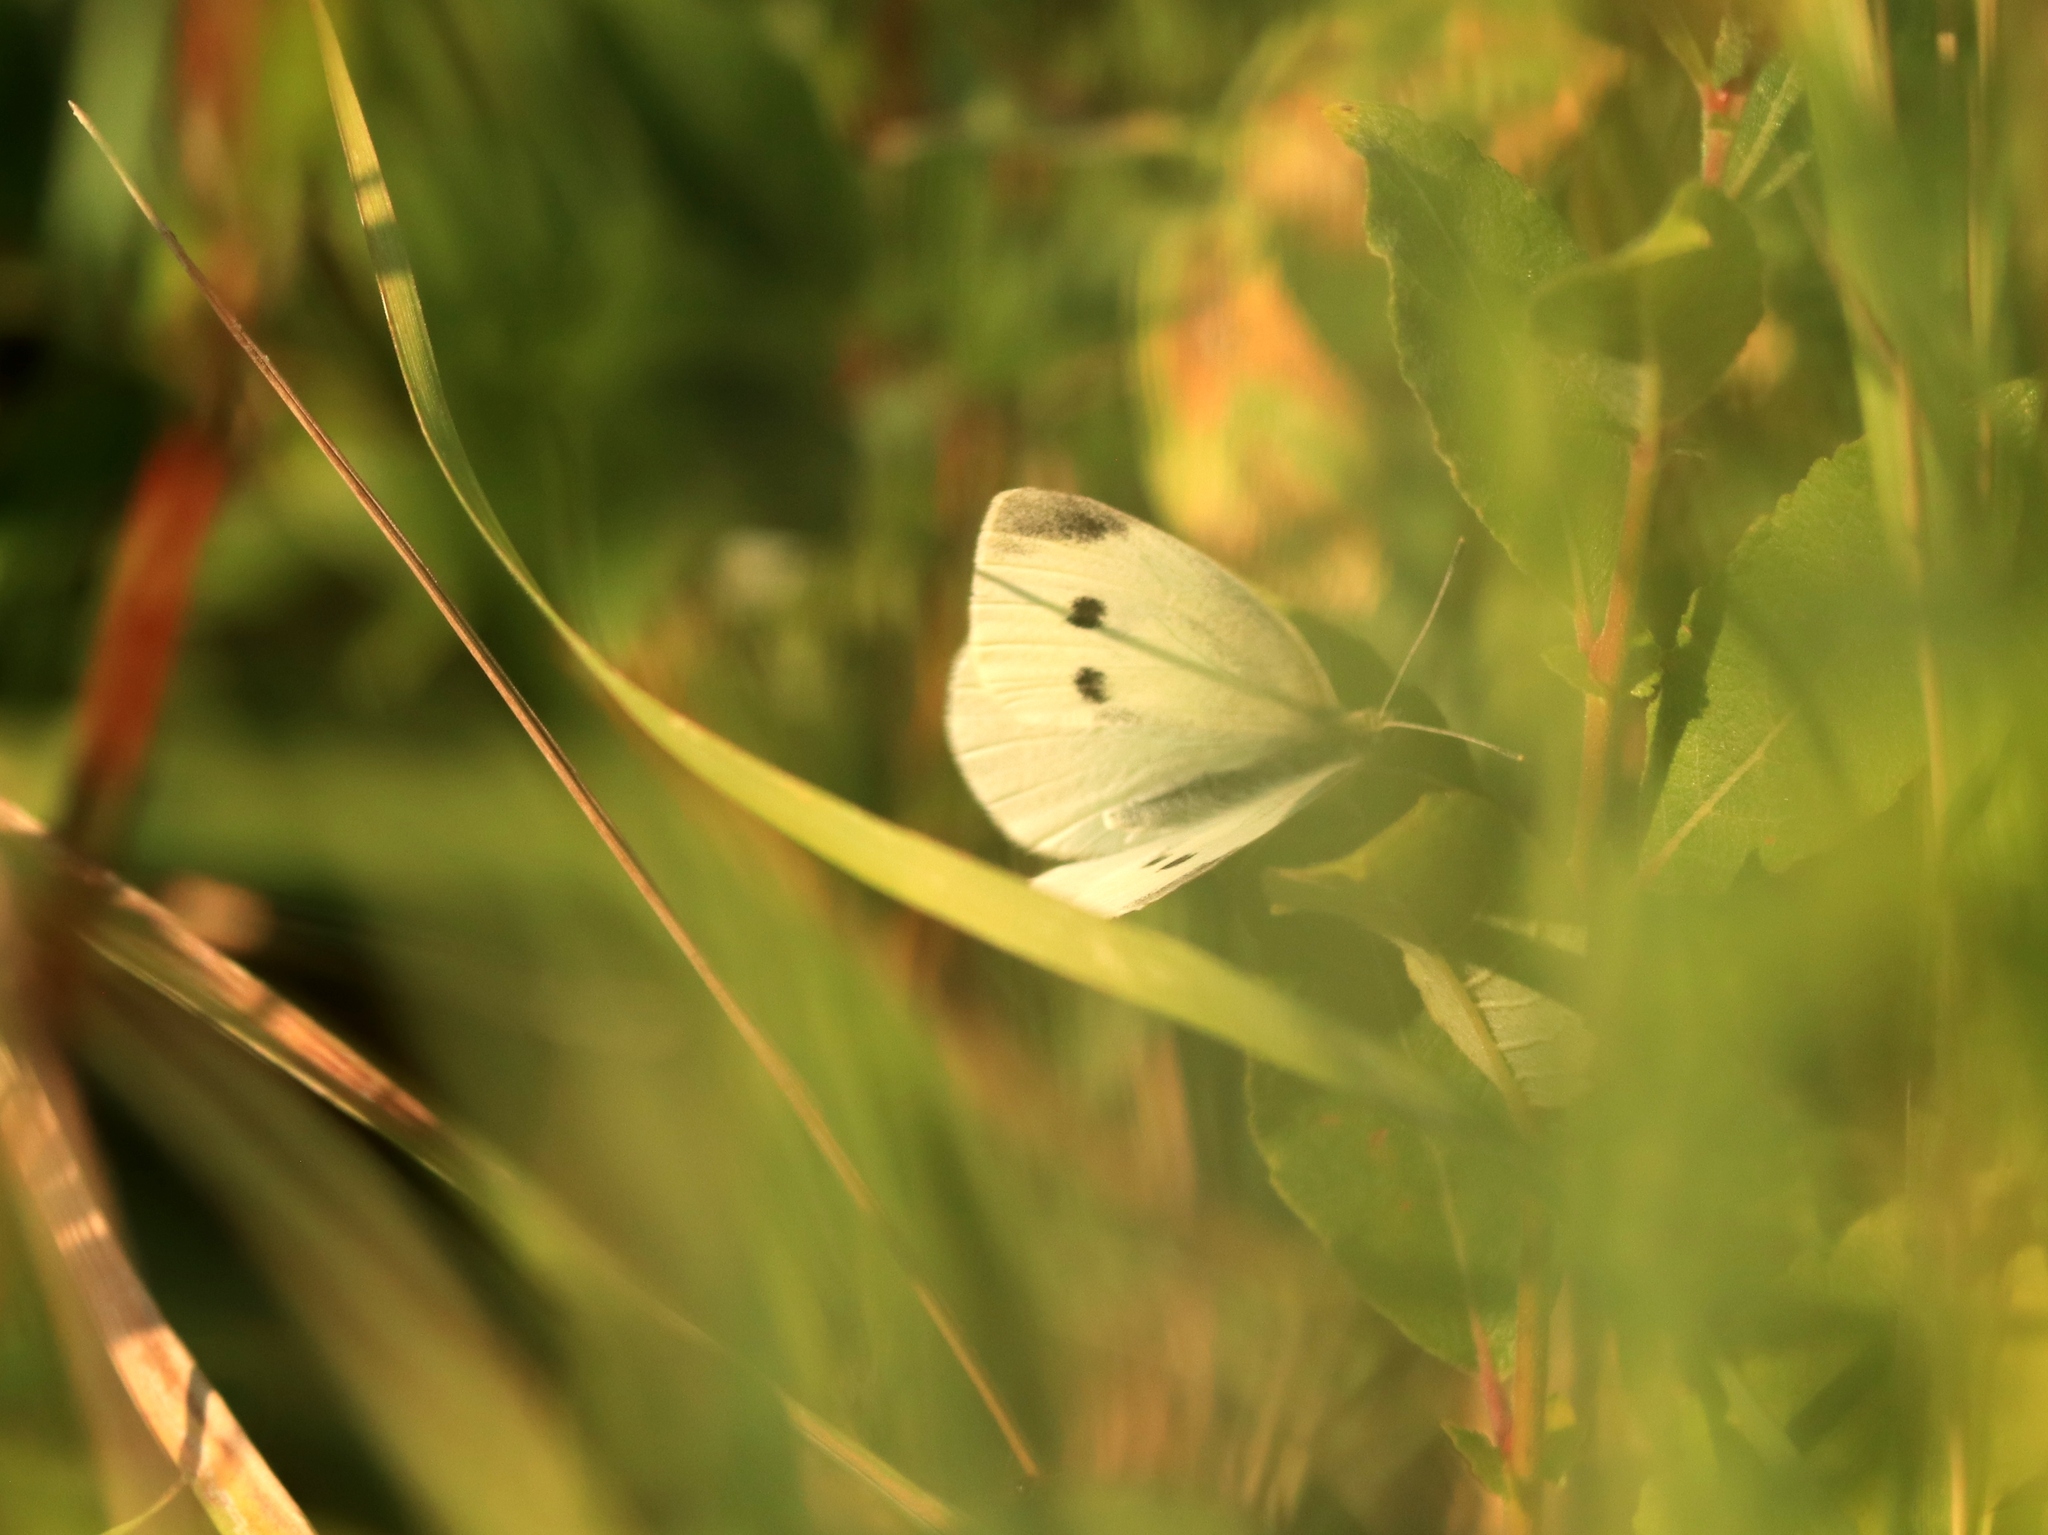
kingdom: Animalia
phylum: Arthropoda
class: Insecta
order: Lepidoptera
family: Pieridae
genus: Pieris
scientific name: Pieris rapae
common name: Small white
